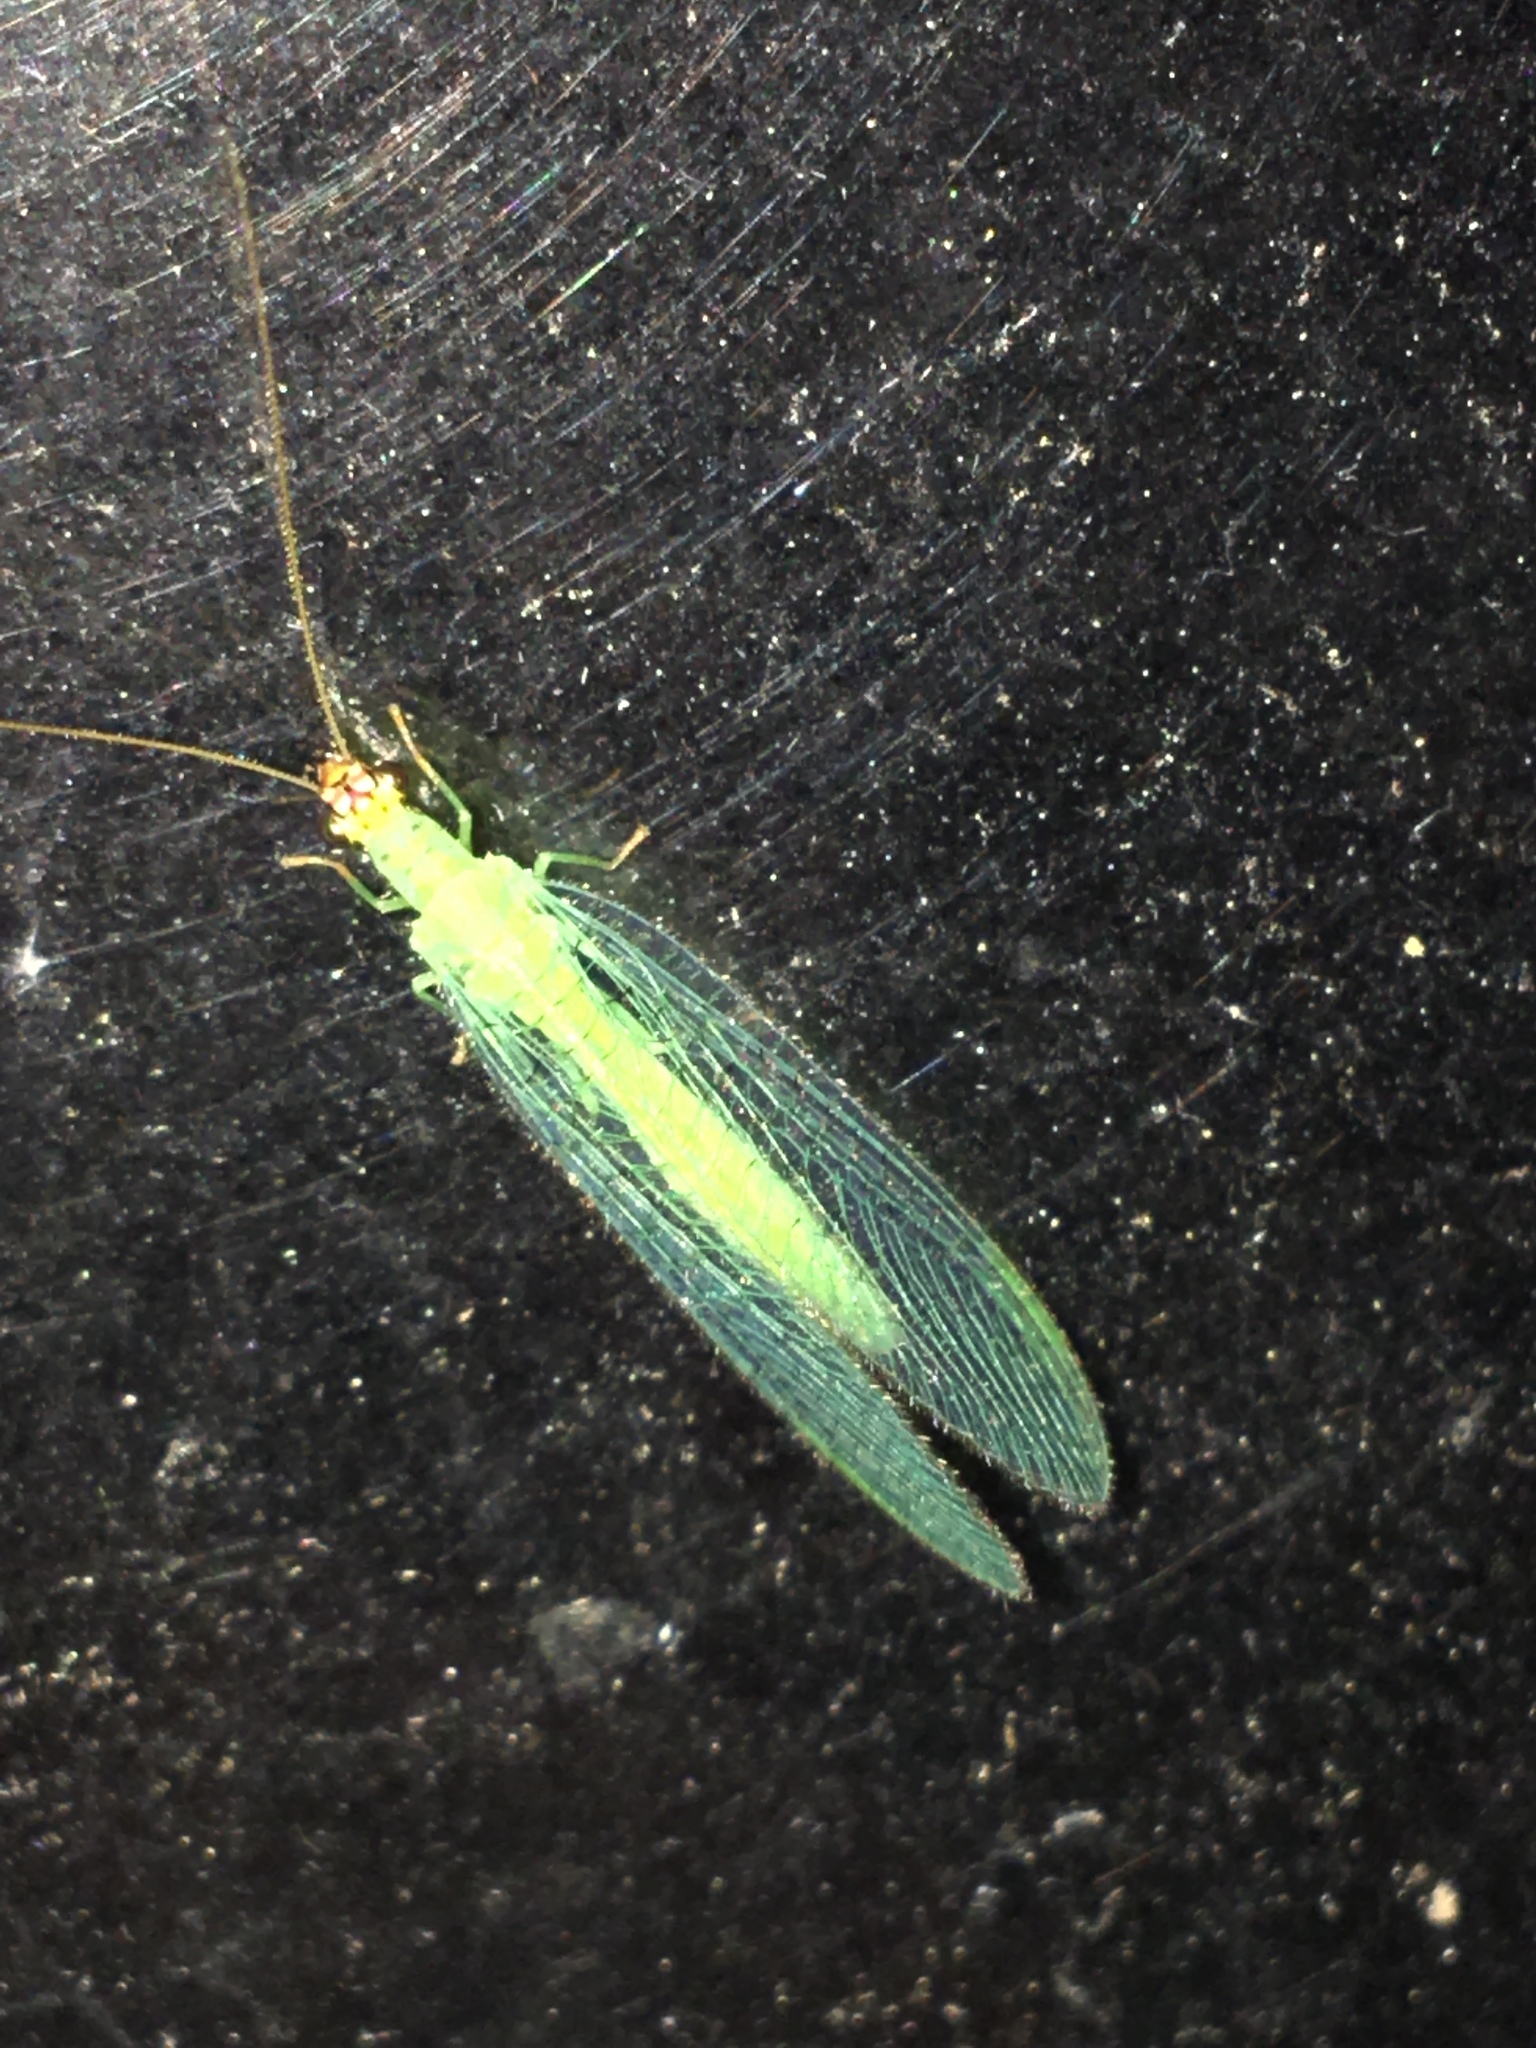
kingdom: Animalia
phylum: Arthropoda
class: Insecta
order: Neuroptera
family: Chrysopidae
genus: Chrysopa
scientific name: Chrysopa oculata
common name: Golden-eyed lacewing
